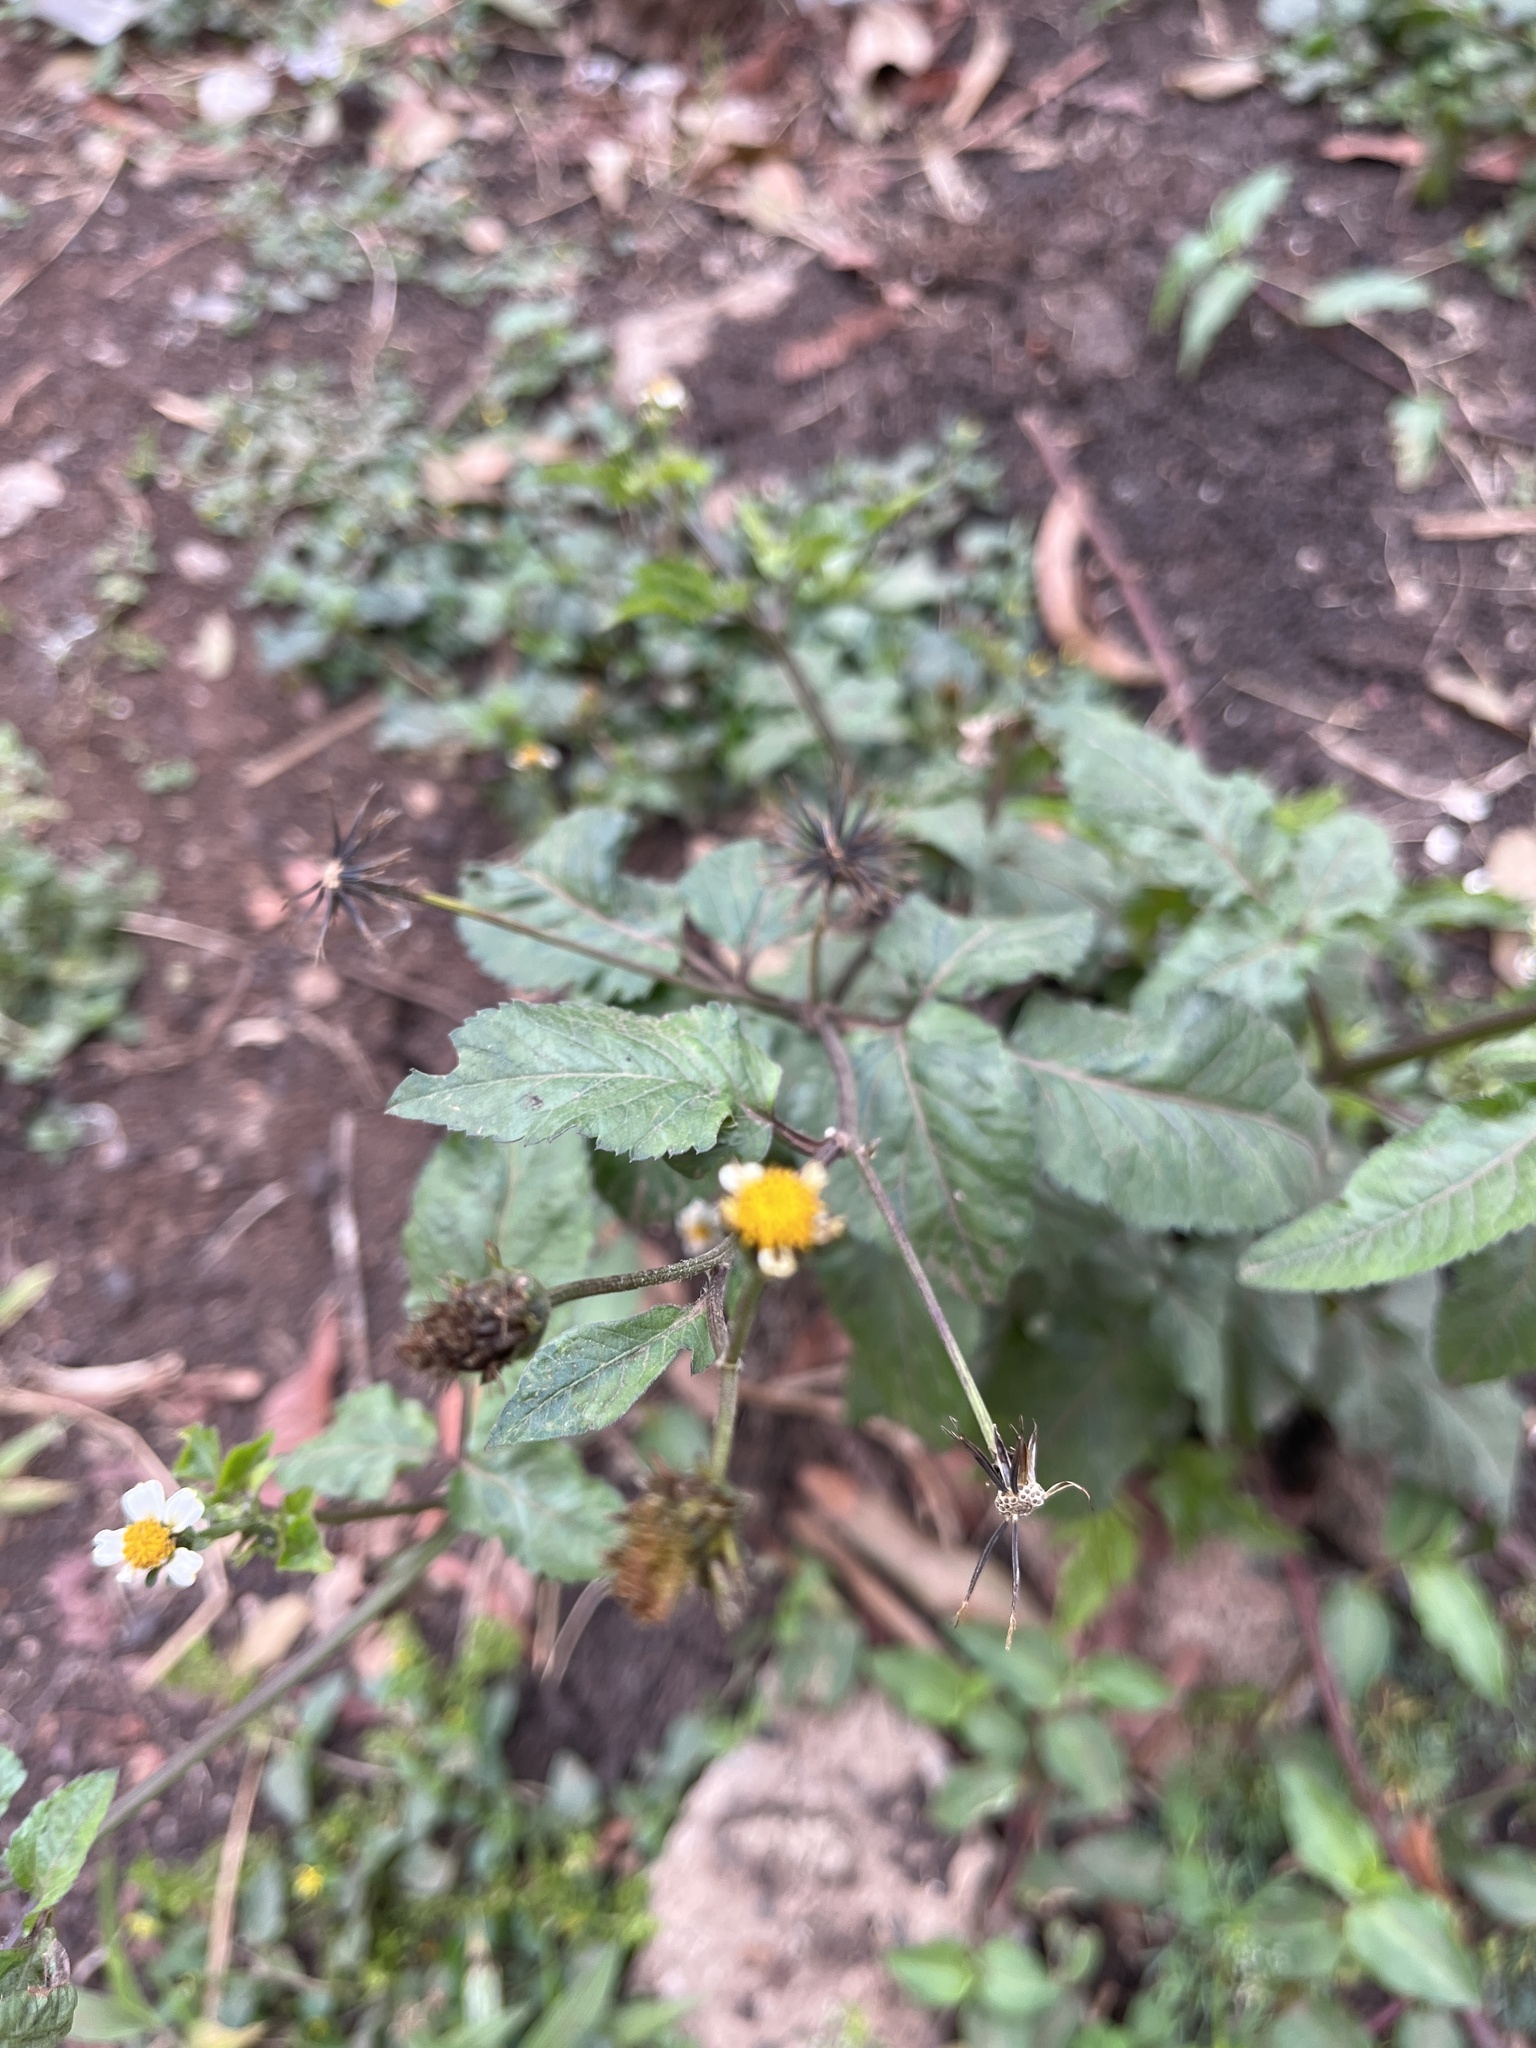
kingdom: Plantae
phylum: Tracheophyta
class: Magnoliopsida
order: Asterales
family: Asteraceae
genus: Bidens
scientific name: Bidens pilosa
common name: Black-jack
